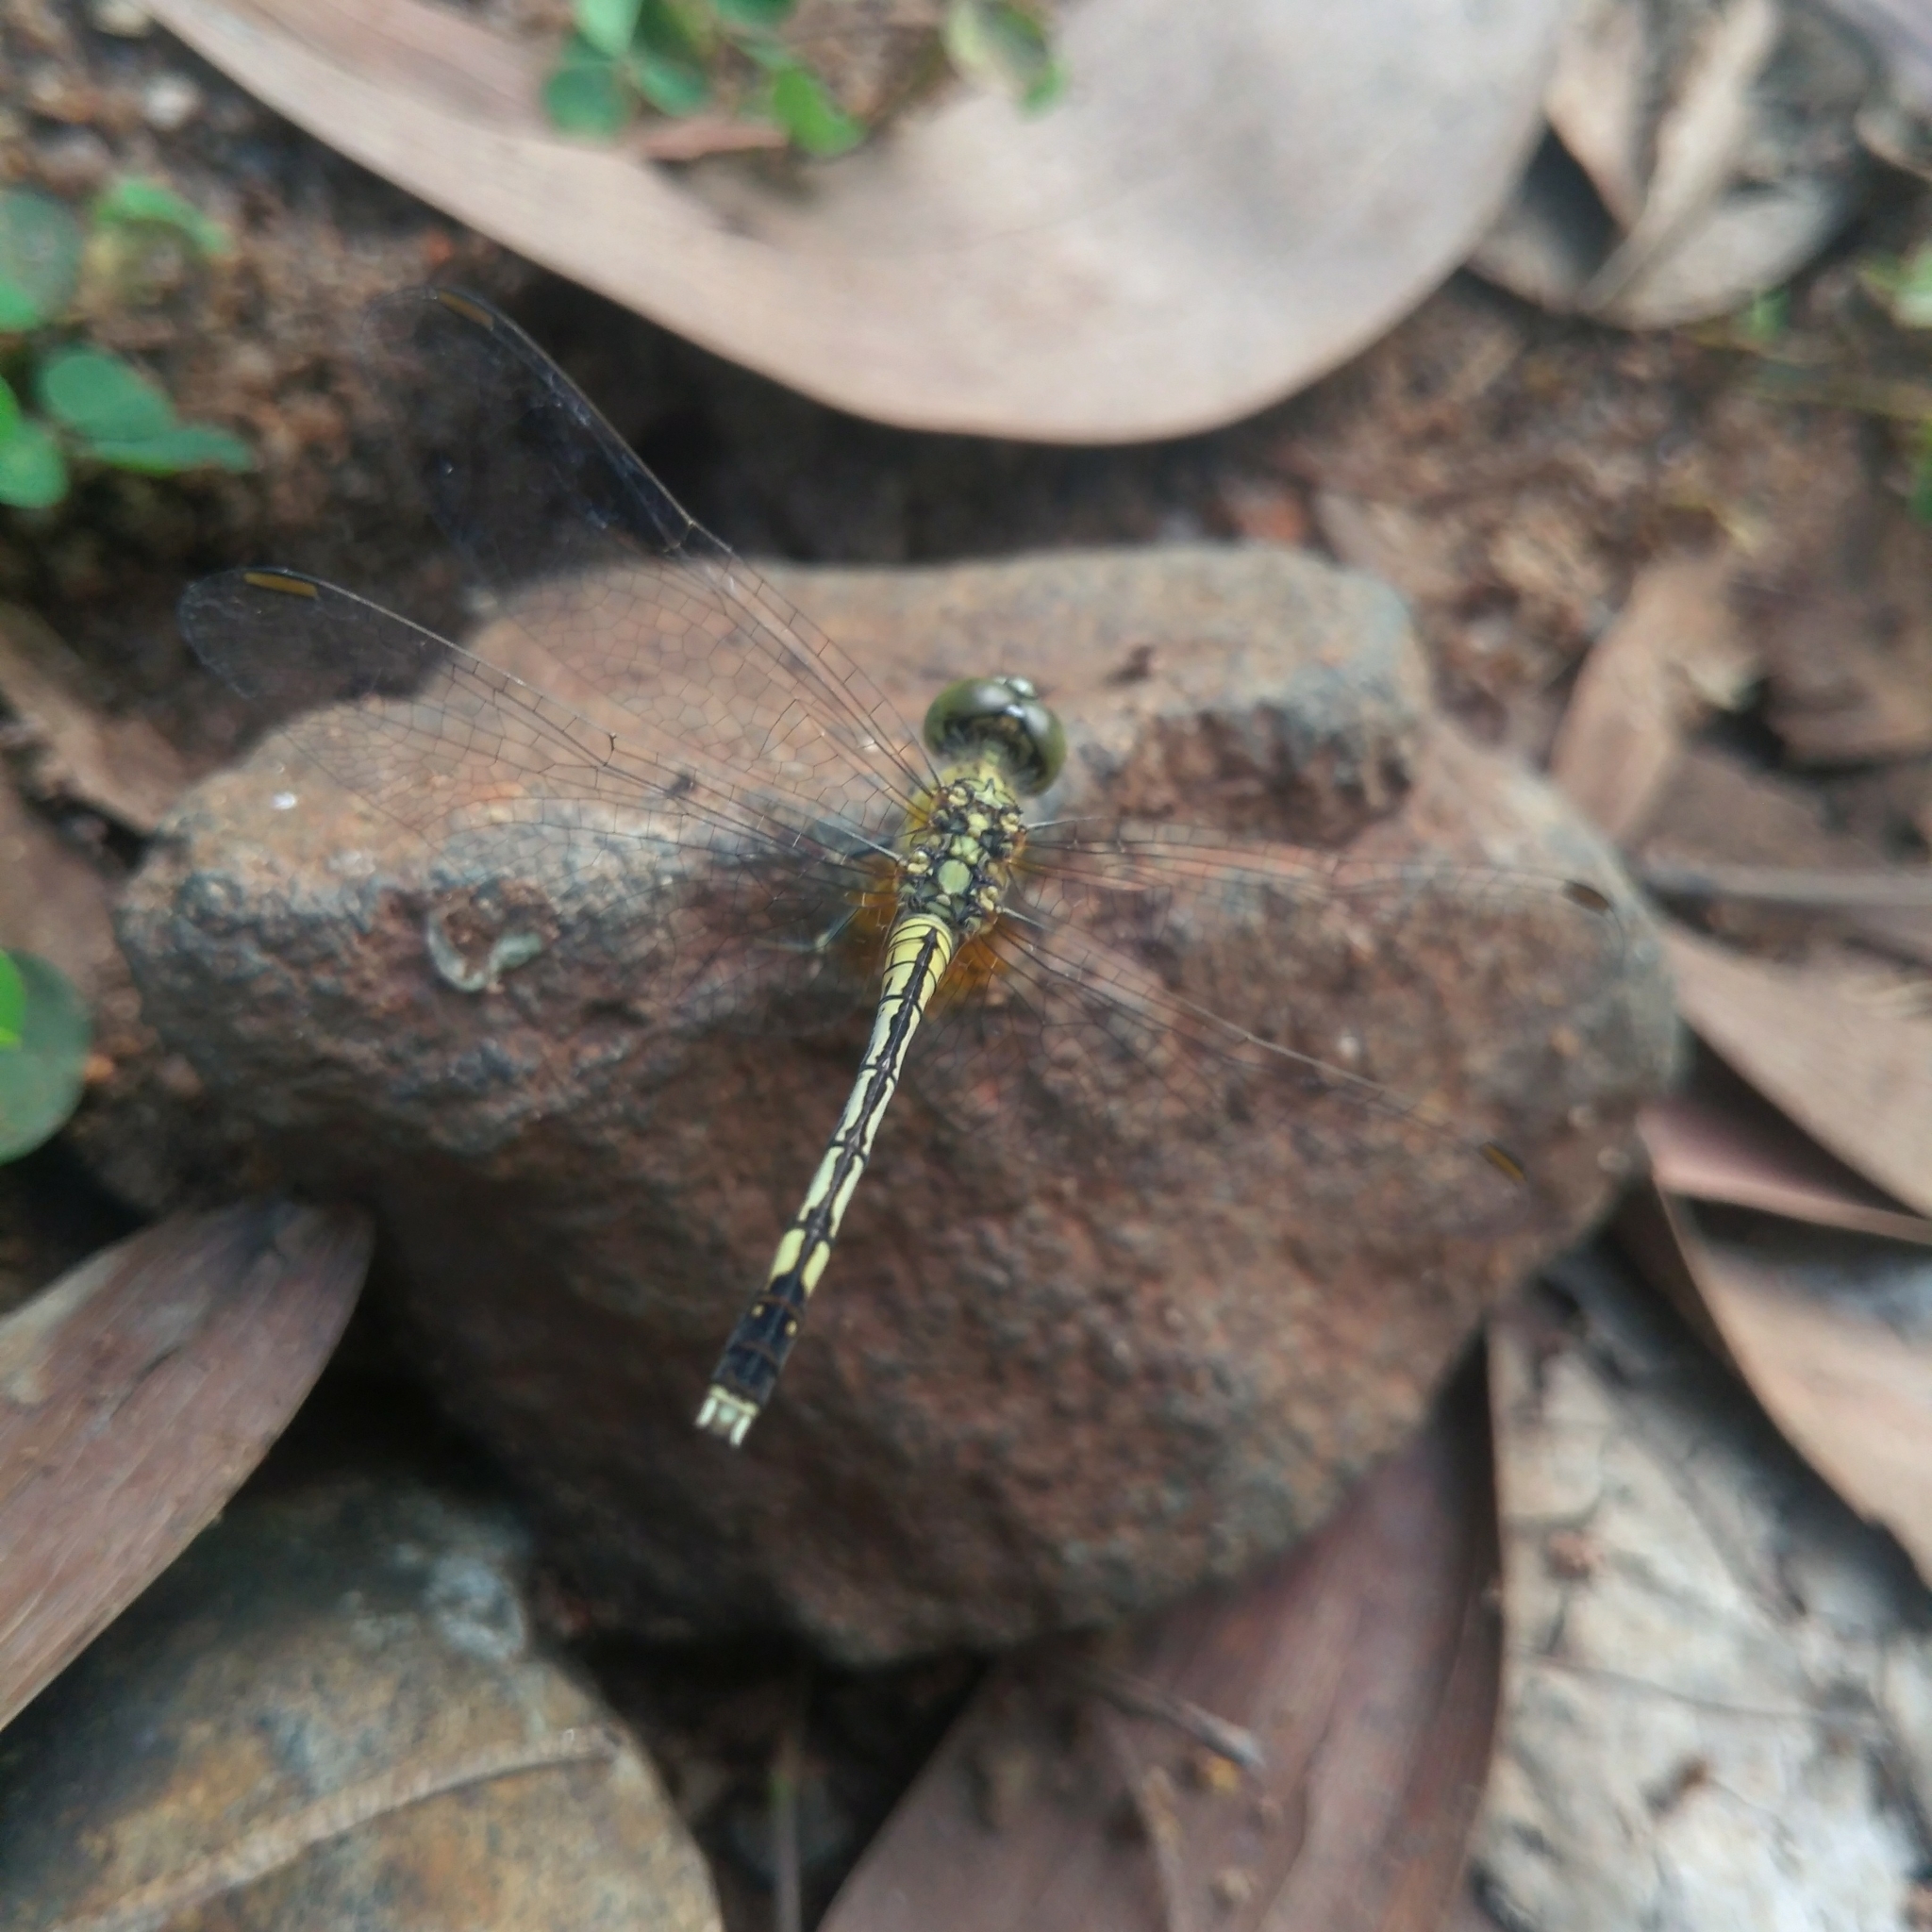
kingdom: Animalia
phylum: Arthropoda
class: Insecta
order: Odonata
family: Libellulidae
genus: Diplacodes
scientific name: Diplacodes trivialis
